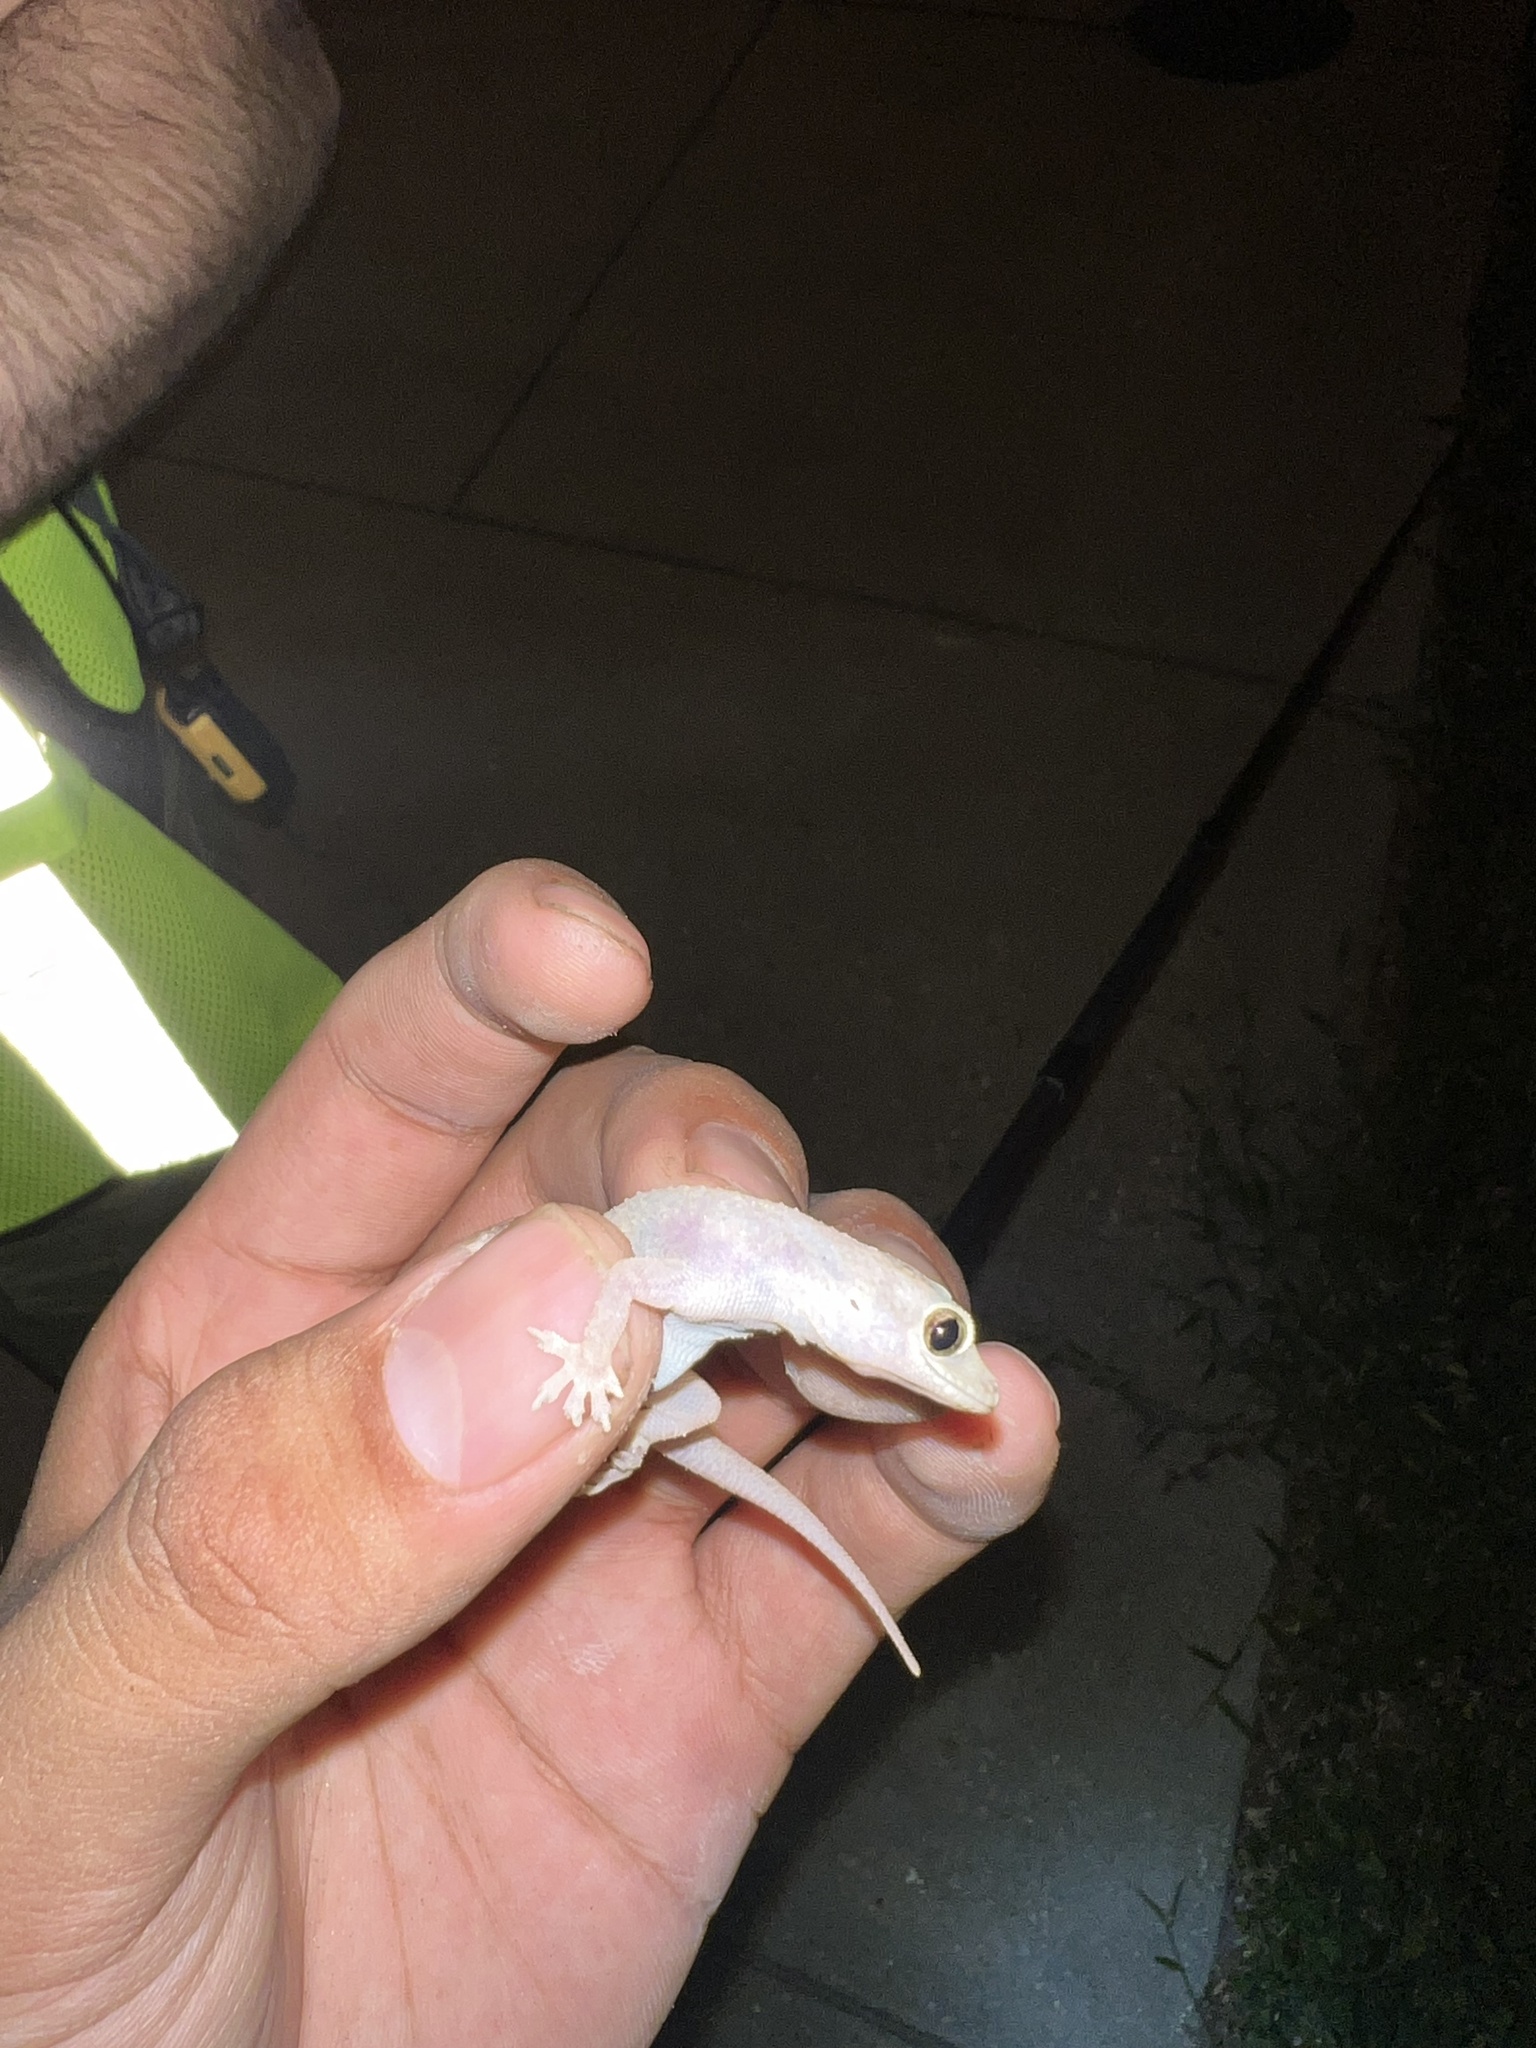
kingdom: Animalia
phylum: Chordata
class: Squamata
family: Gekkonidae
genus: Hemidactylus
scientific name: Hemidactylus parvimaculatus
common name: Spotted house gecko
